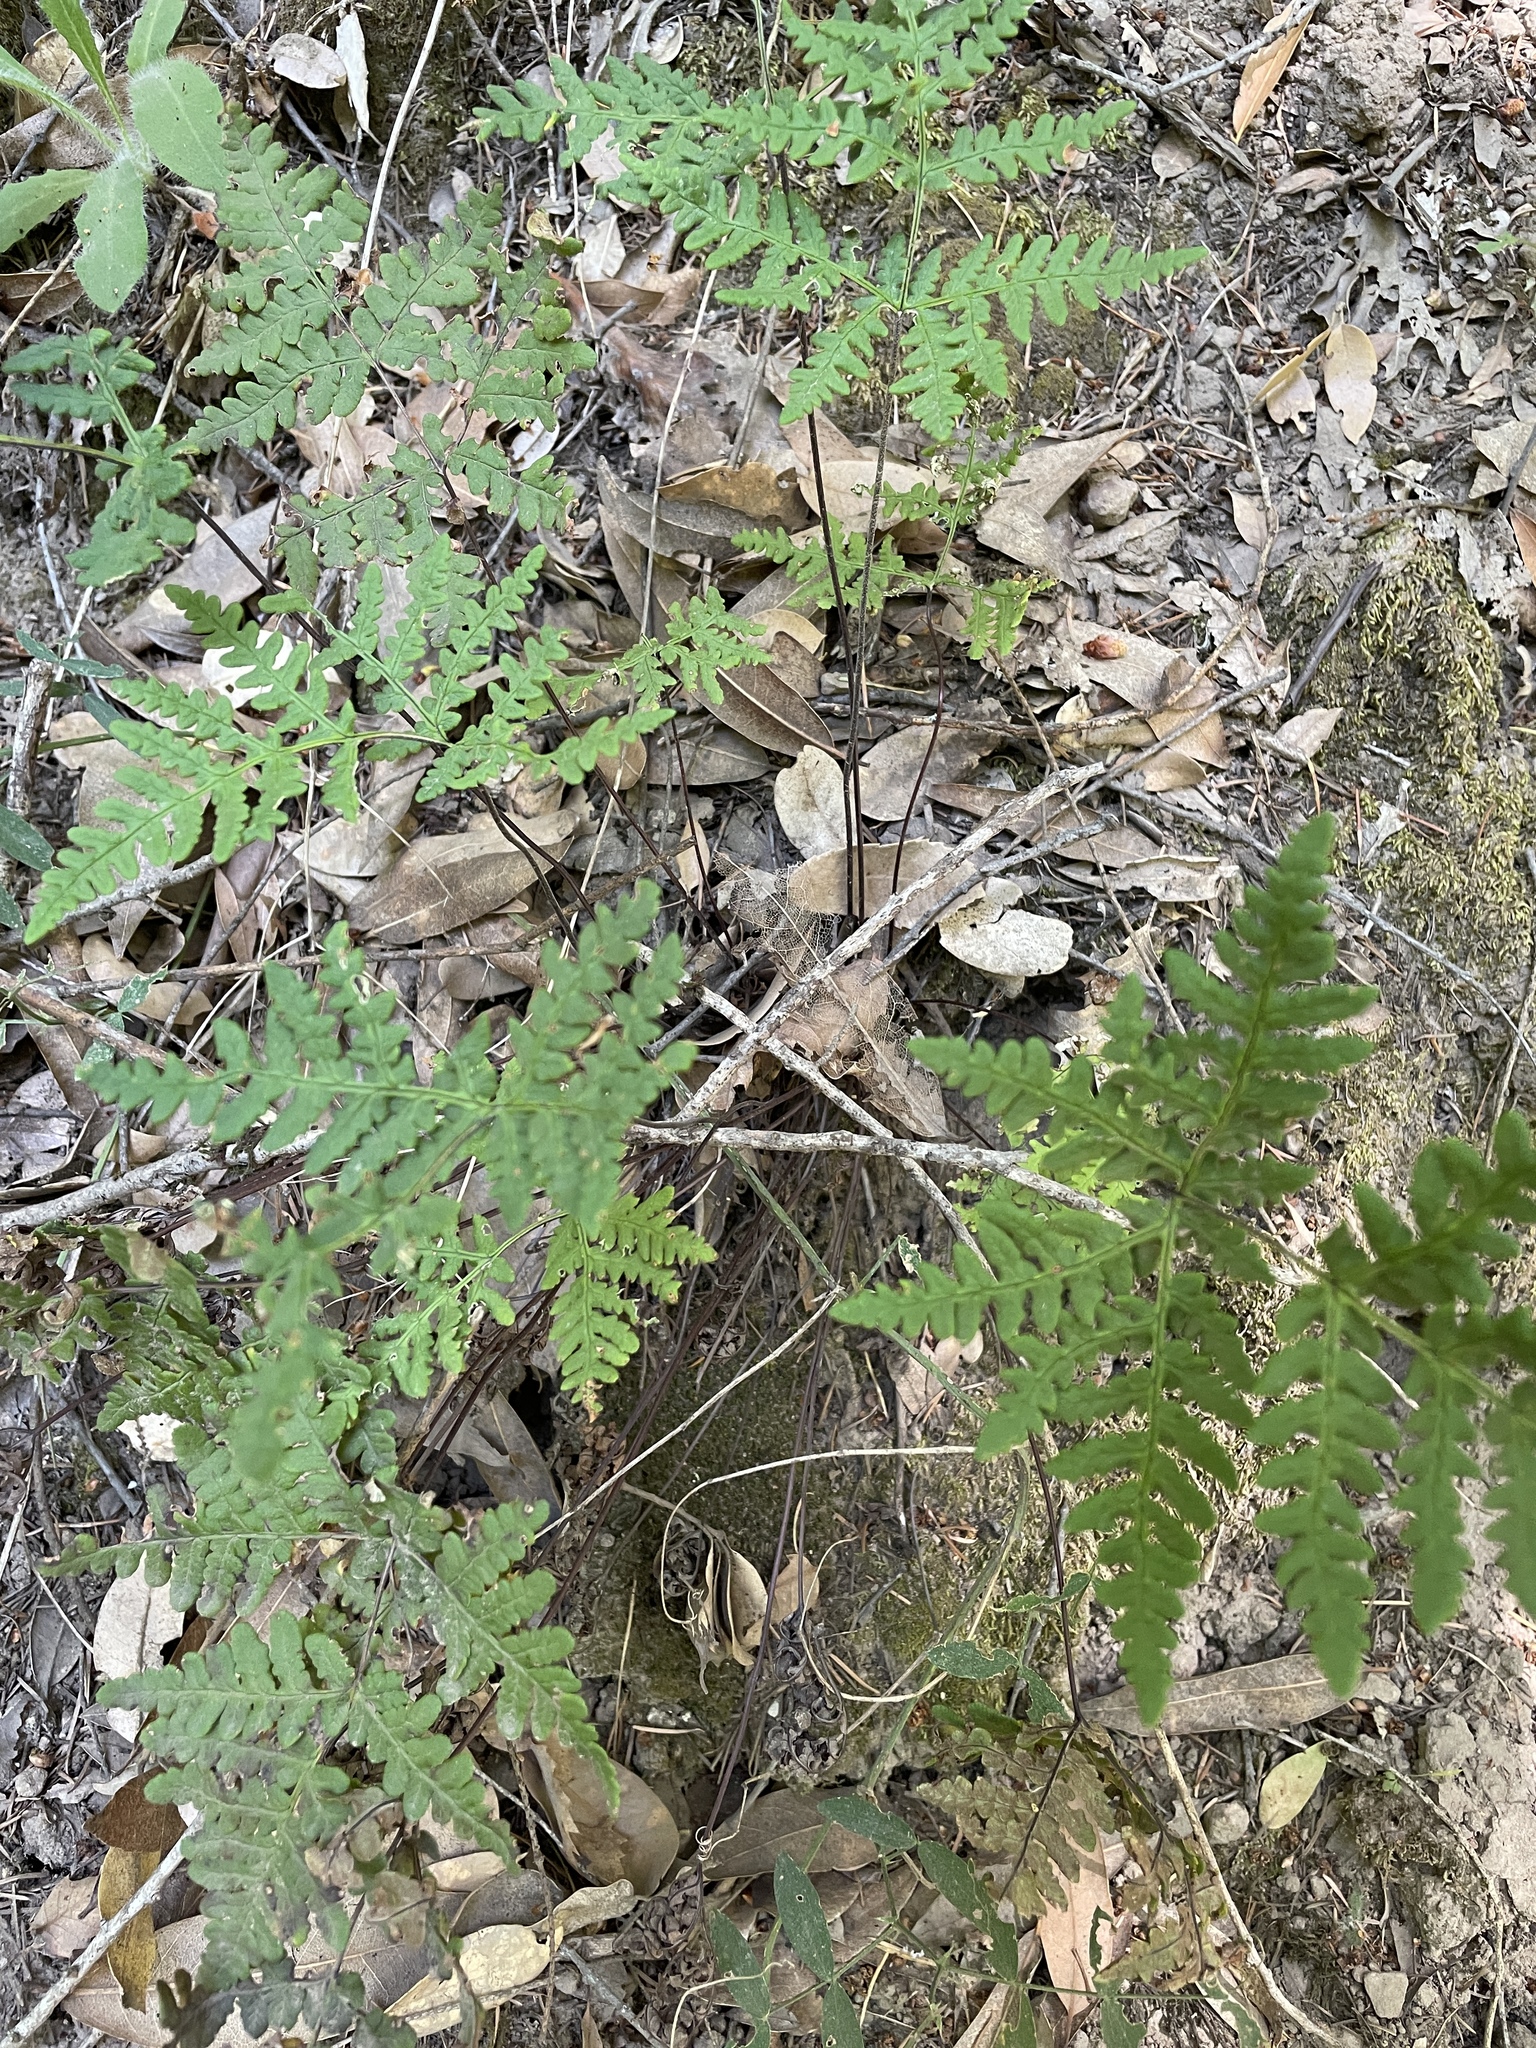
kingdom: Plantae
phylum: Tracheophyta
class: Polypodiopsida
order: Polypodiales
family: Pteridaceae
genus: Pentagramma
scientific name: Pentagramma triangularis
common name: Gold fern
